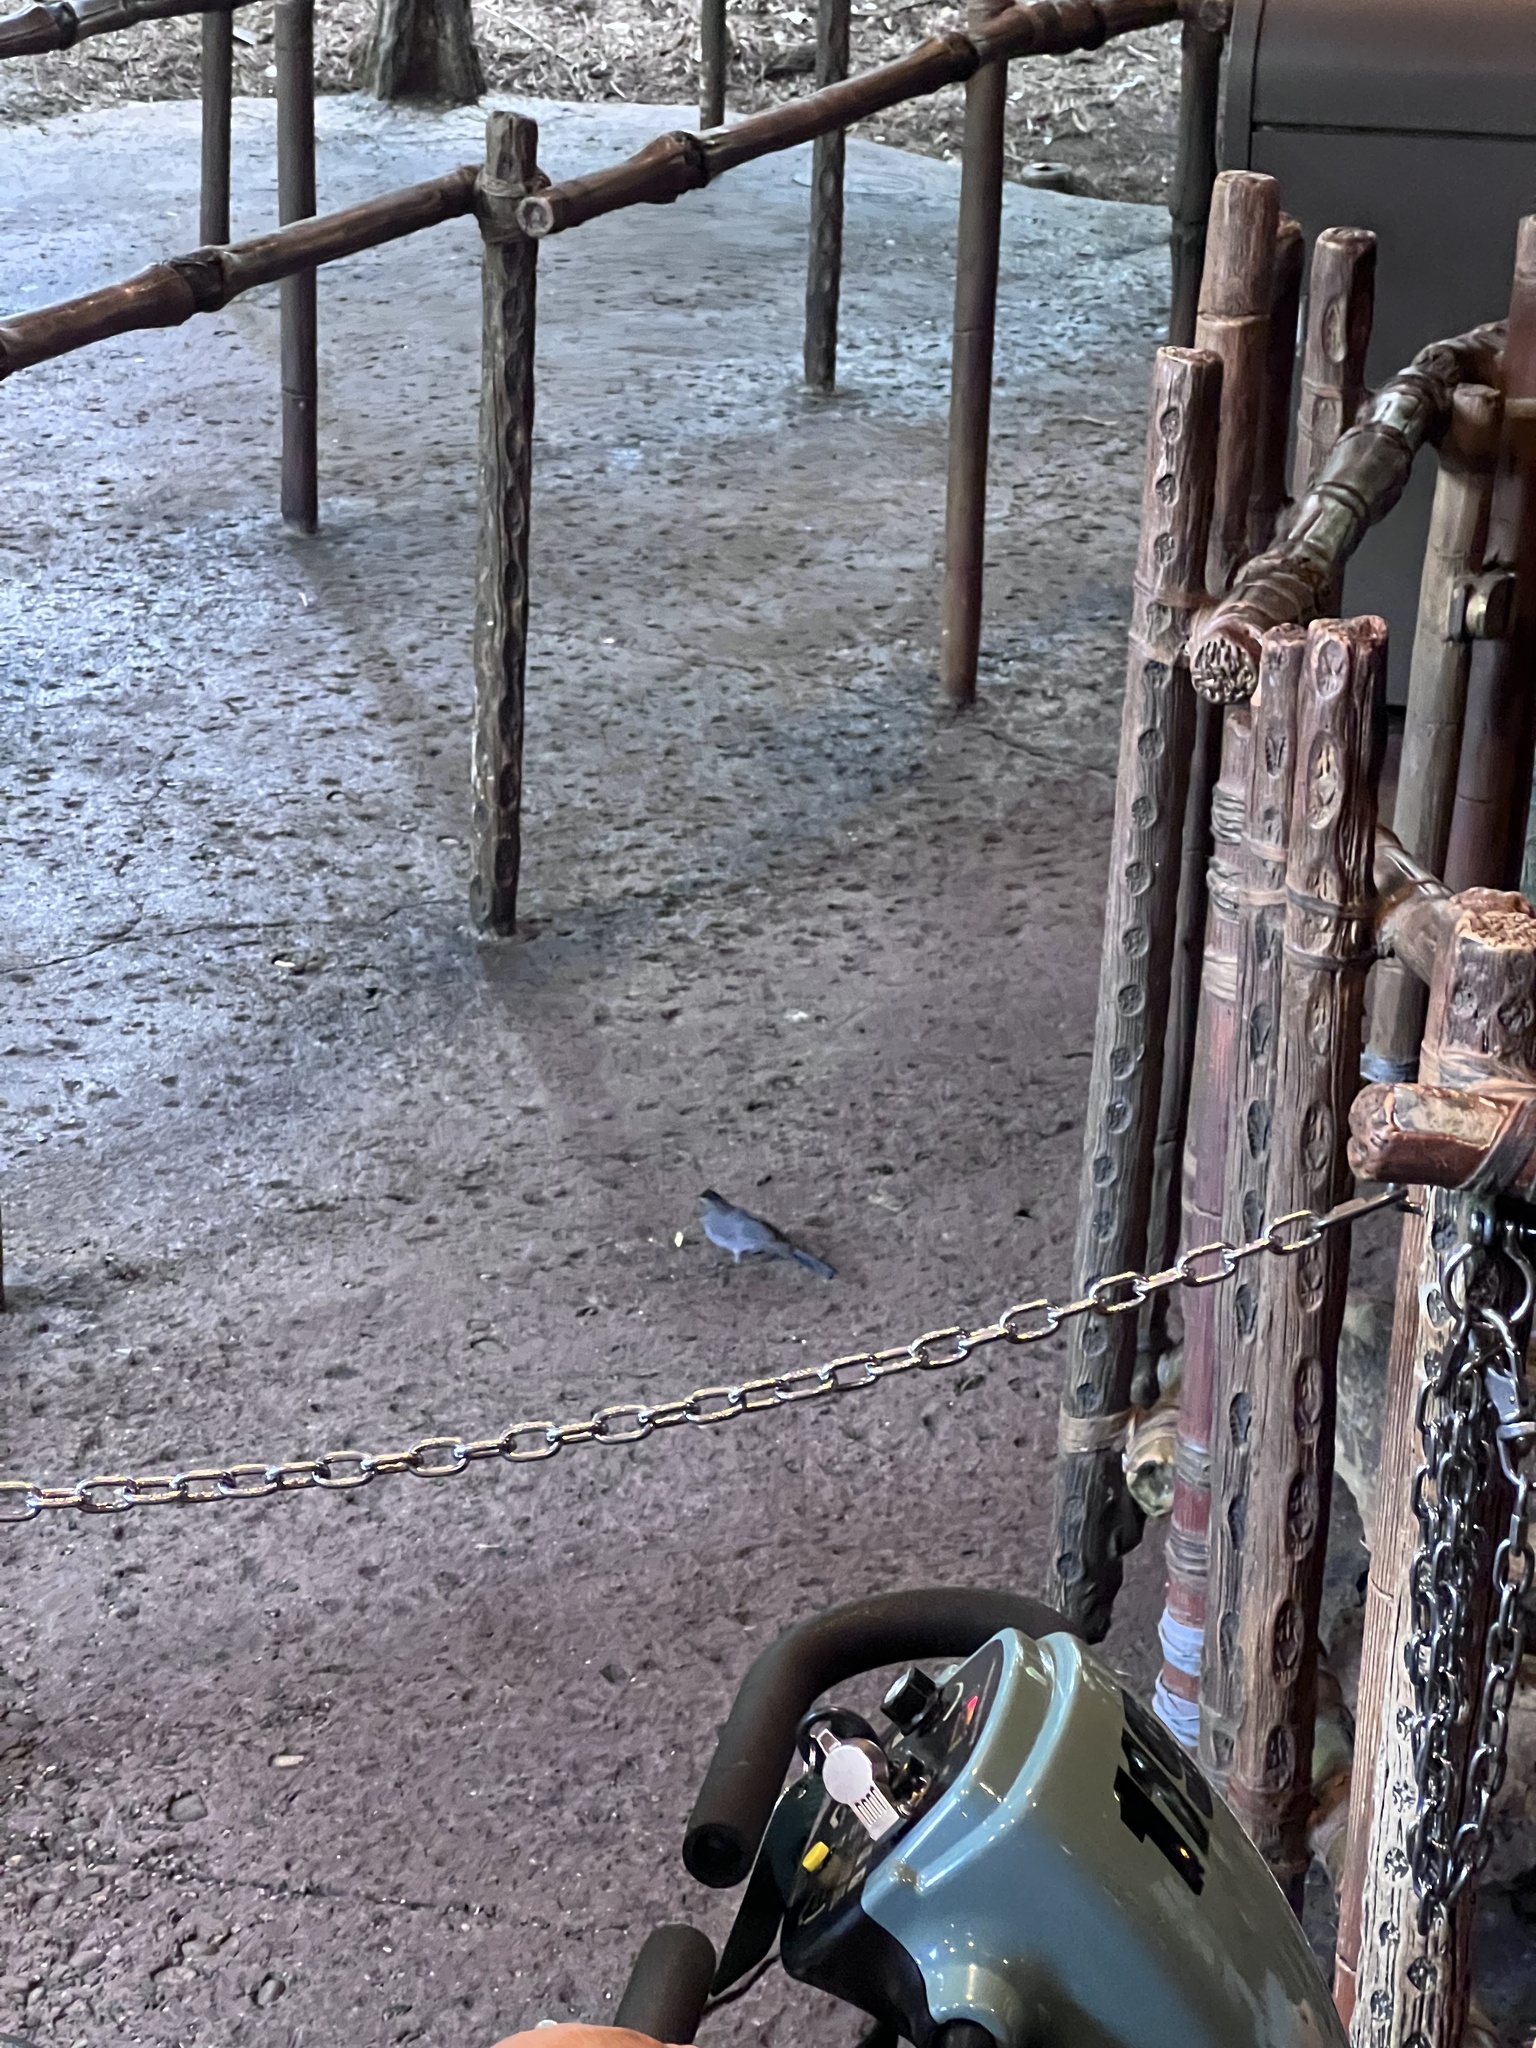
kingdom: Animalia
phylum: Chordata
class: Aves
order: Passeriformes
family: Mimidae
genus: Dumetella
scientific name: Dumetella carolinensis
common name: Gray catbird
